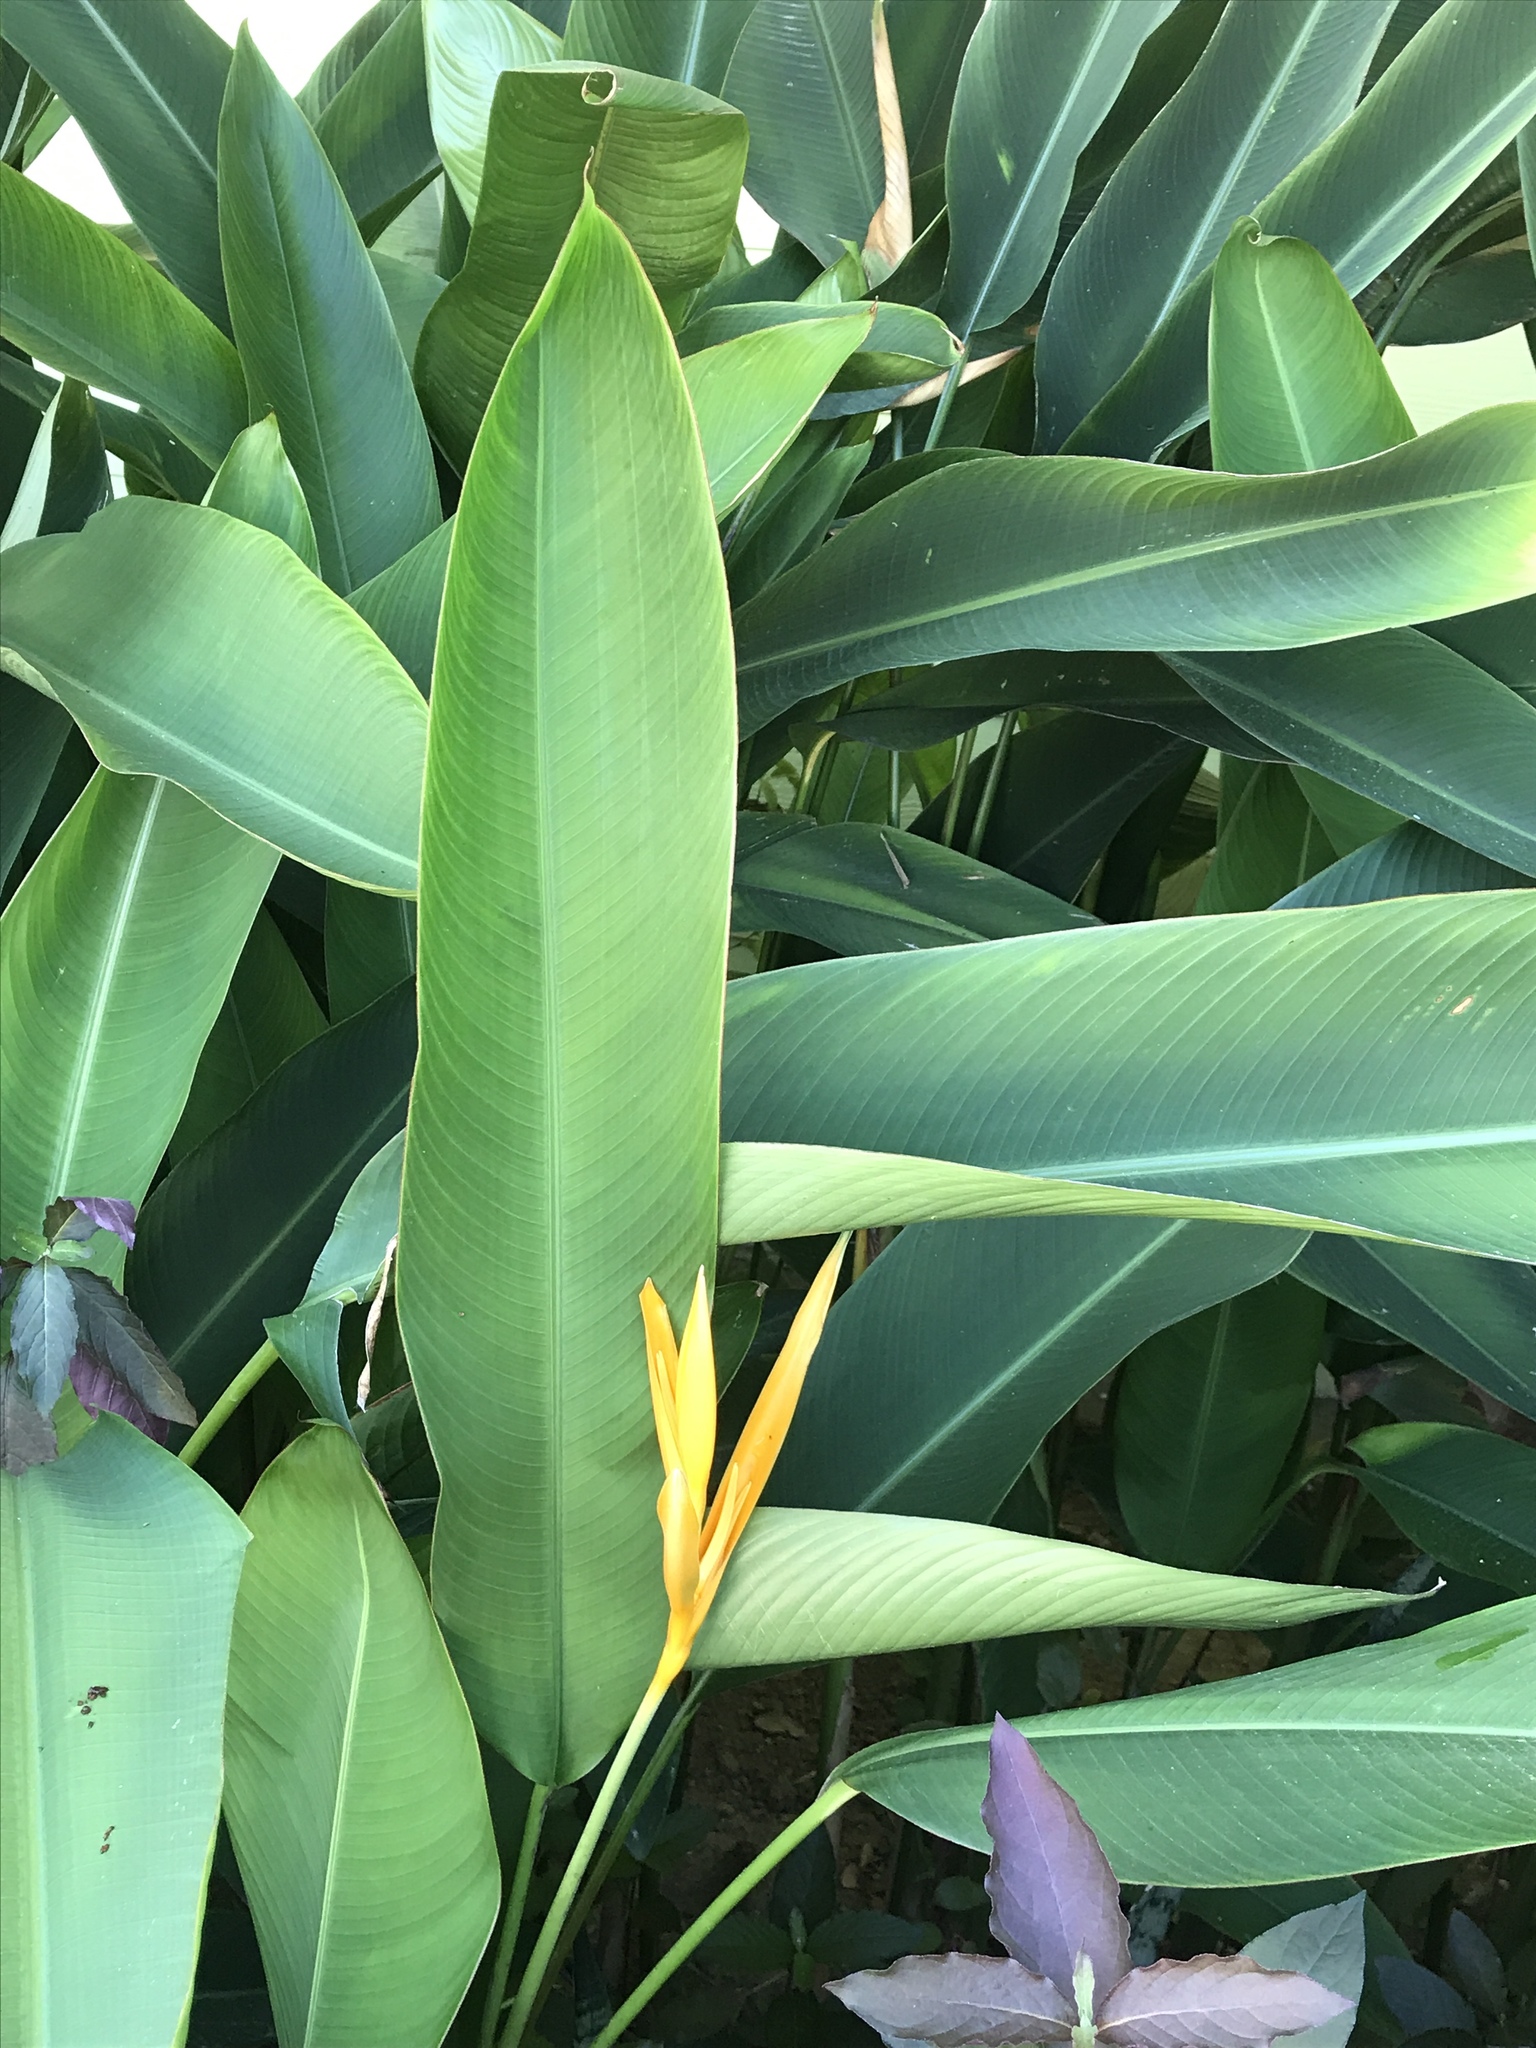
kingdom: Plantae
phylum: Tracheophyta
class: Liliopsida
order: Zingiberales
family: Heliconiaceae
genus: Heliconia
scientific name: Heliconia nickeriensis
